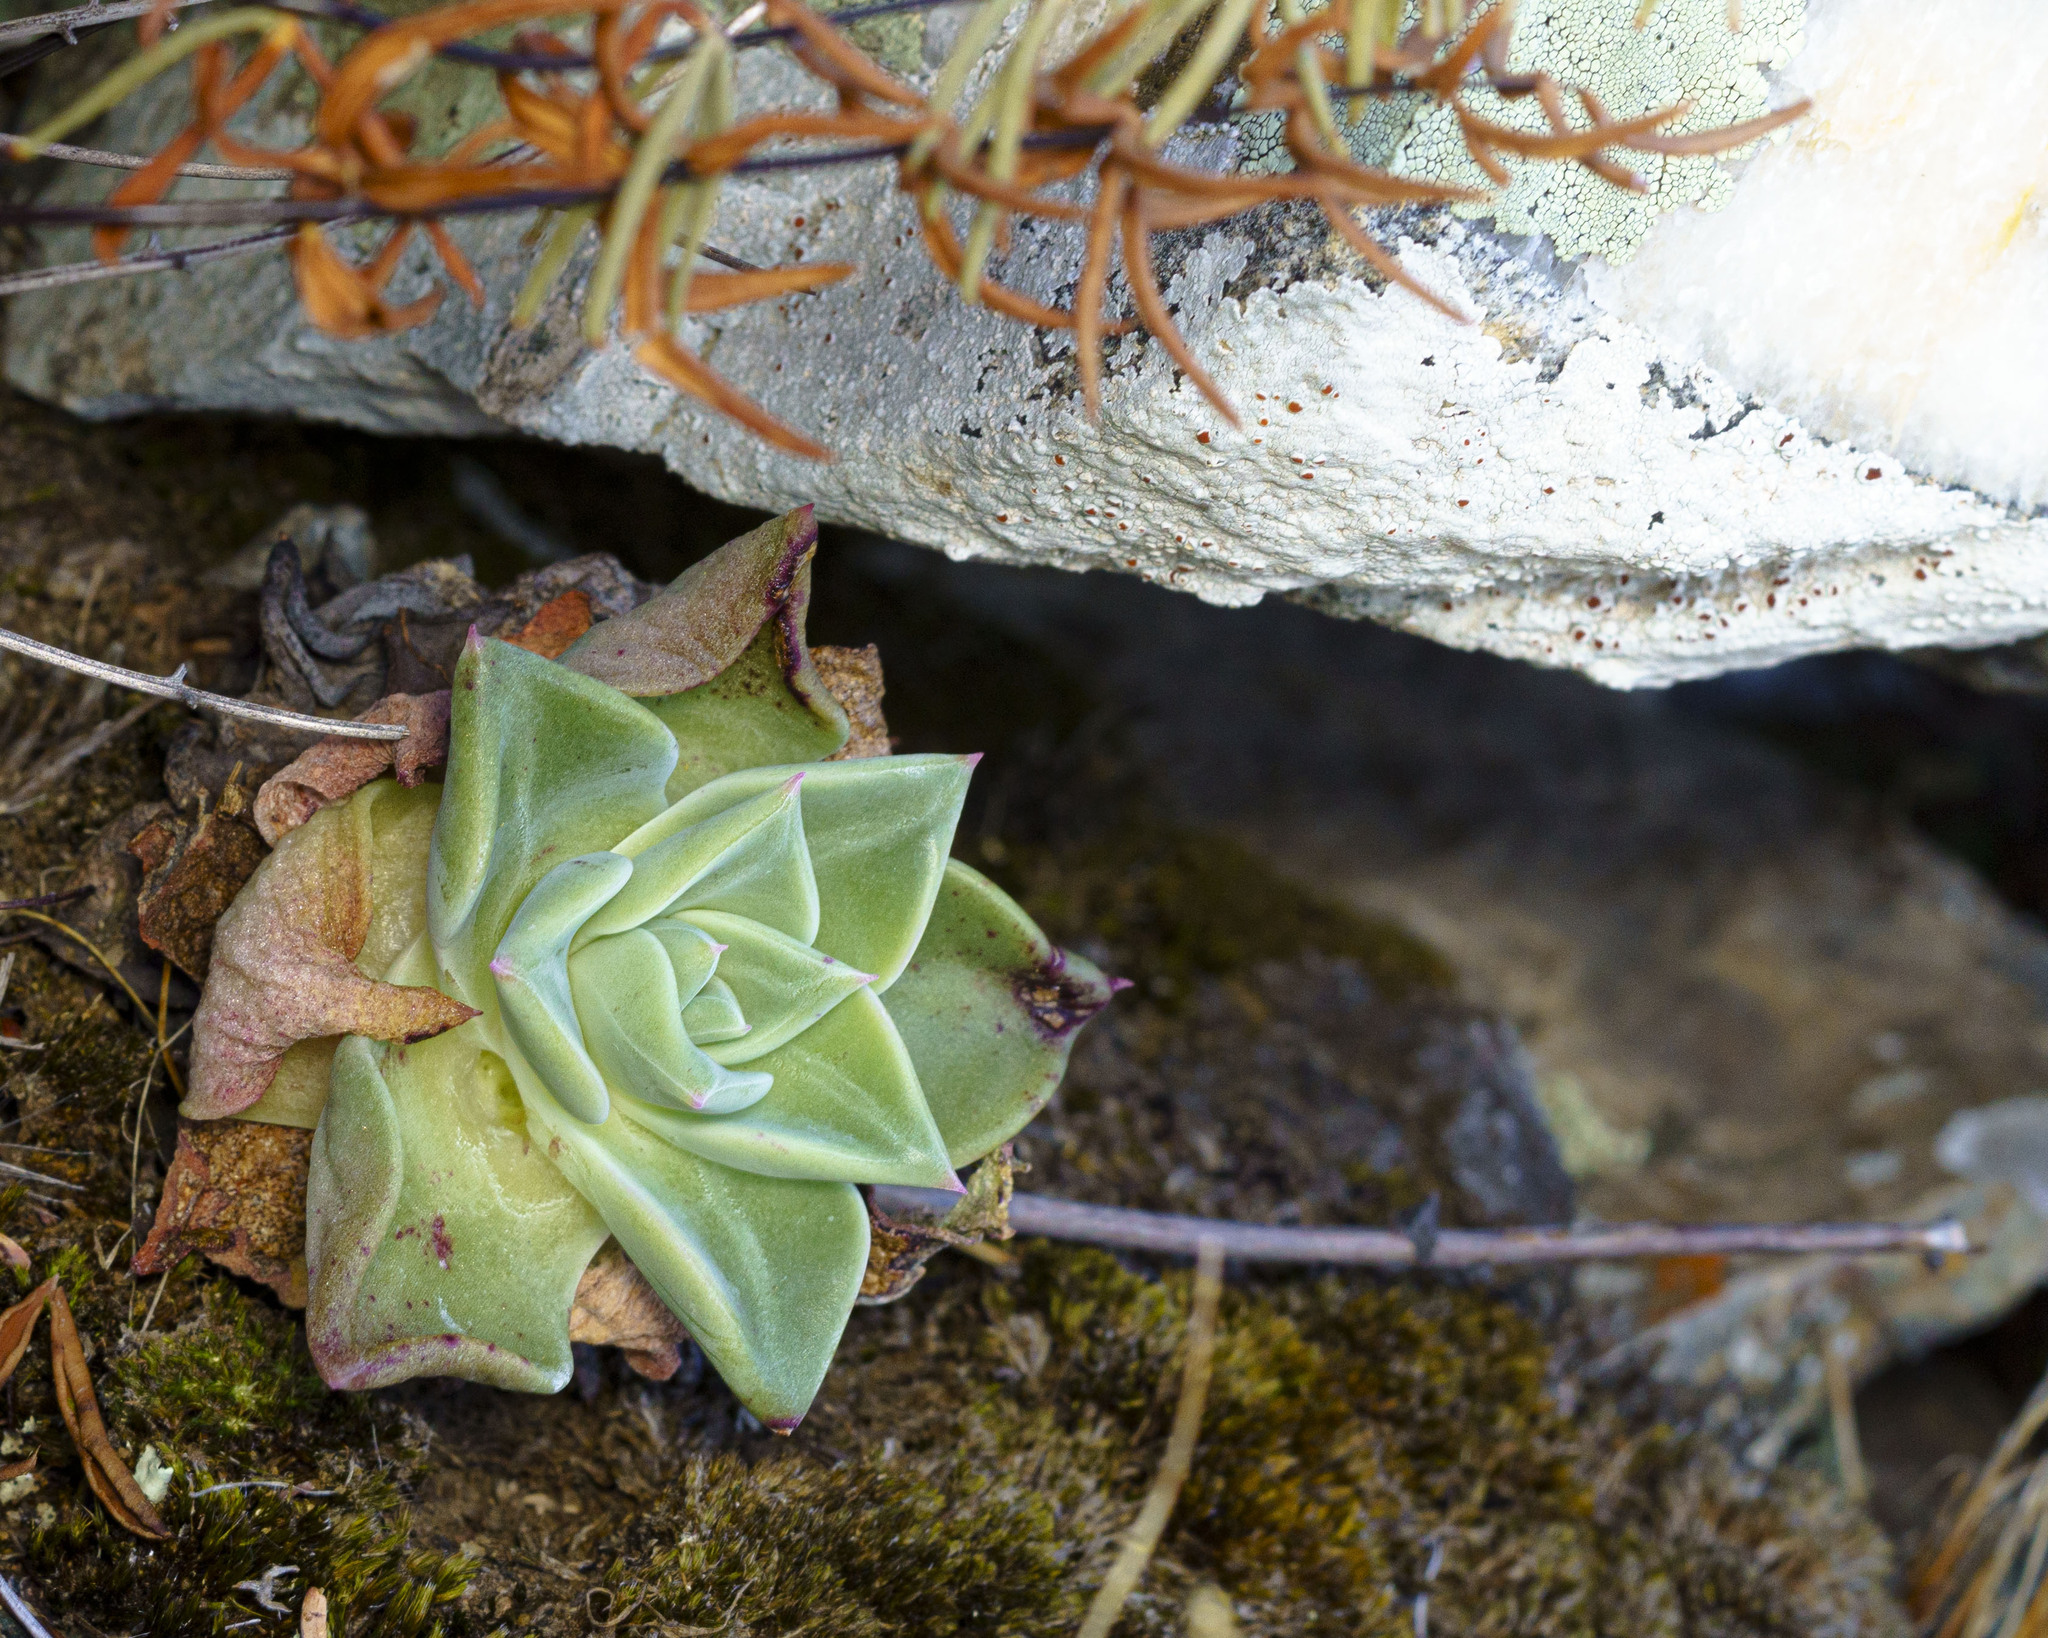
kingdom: Plantae
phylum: Tracheophyta
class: Magnoliopsida
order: Saxifragales
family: Crassulaceae
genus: Dudleya
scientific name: Dudleya rigida
